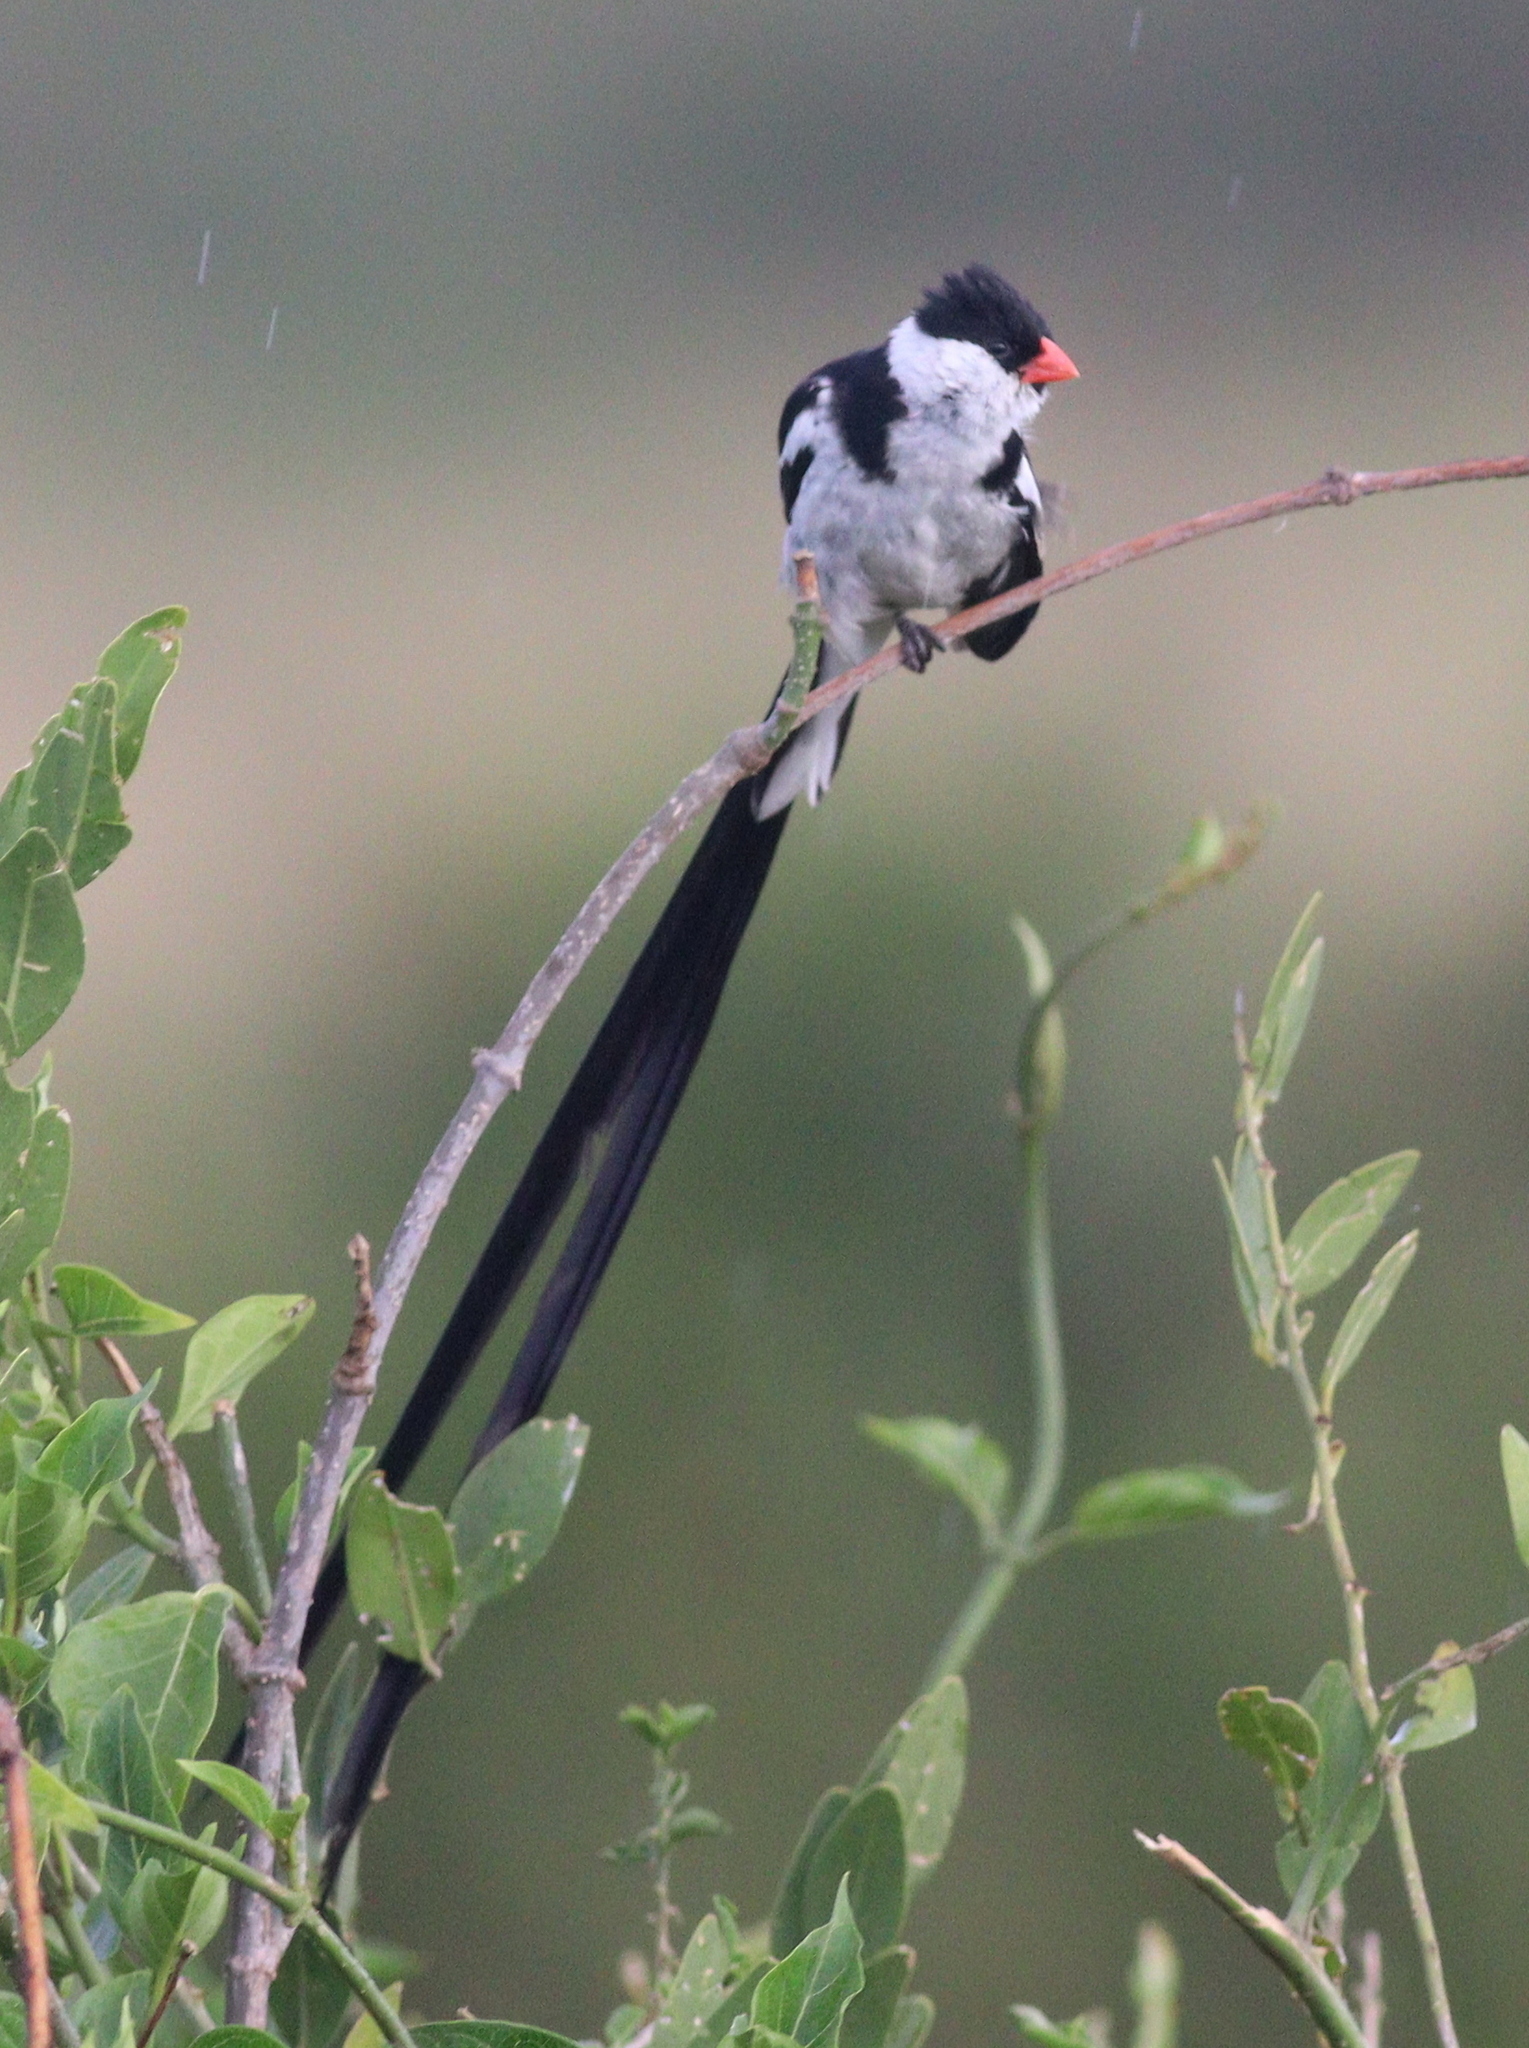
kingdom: Animalia
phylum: Chordata
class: Aves
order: Passeriformes
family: Viduidae
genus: Vidua
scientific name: Vidua macroura
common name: Pin-tailed whydah
